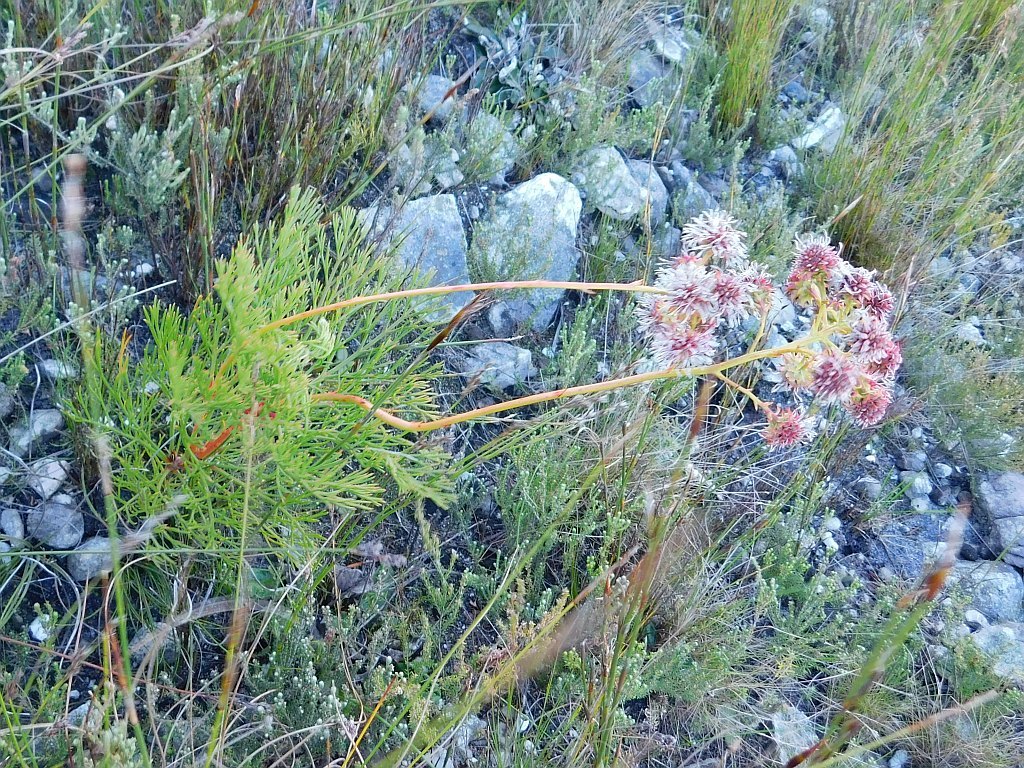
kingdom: Plantae
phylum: Tracheophyta
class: Magnoliopsida
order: Proteales
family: Proteaceae
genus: Serruria
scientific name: Serruria elongata
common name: Long-stalk spiderhead
